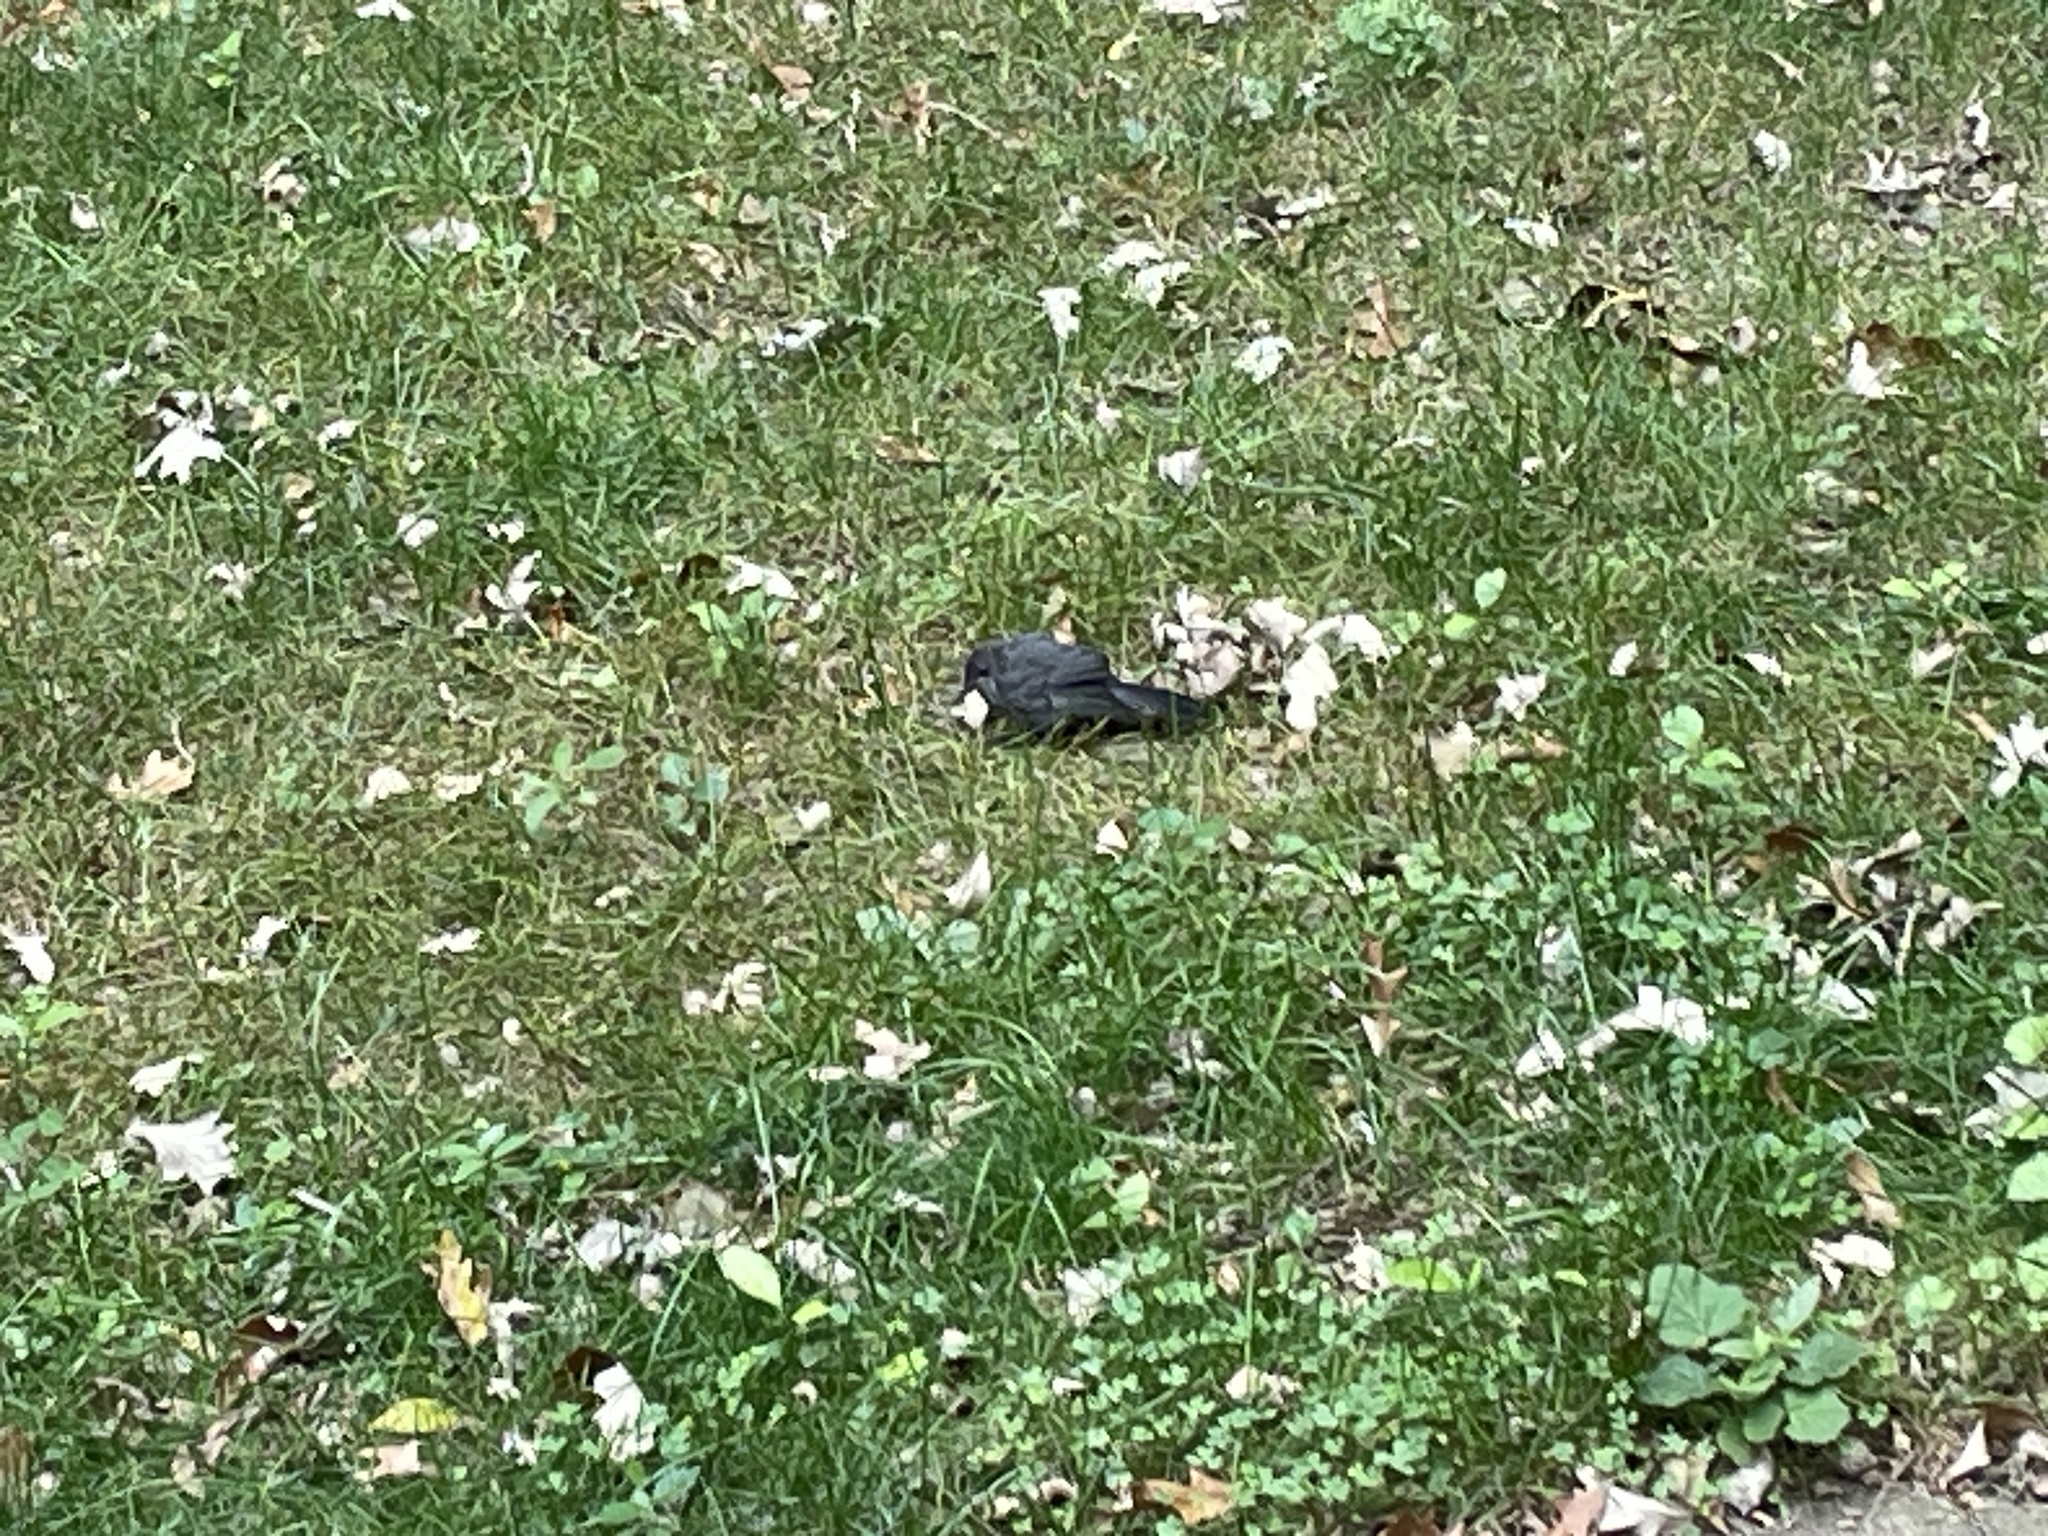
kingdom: Animalia
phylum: Chordata
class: Aves
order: Passeriformes
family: Mimidae
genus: Dumetella
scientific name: Dumetella carolinensis
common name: Gray catbird
